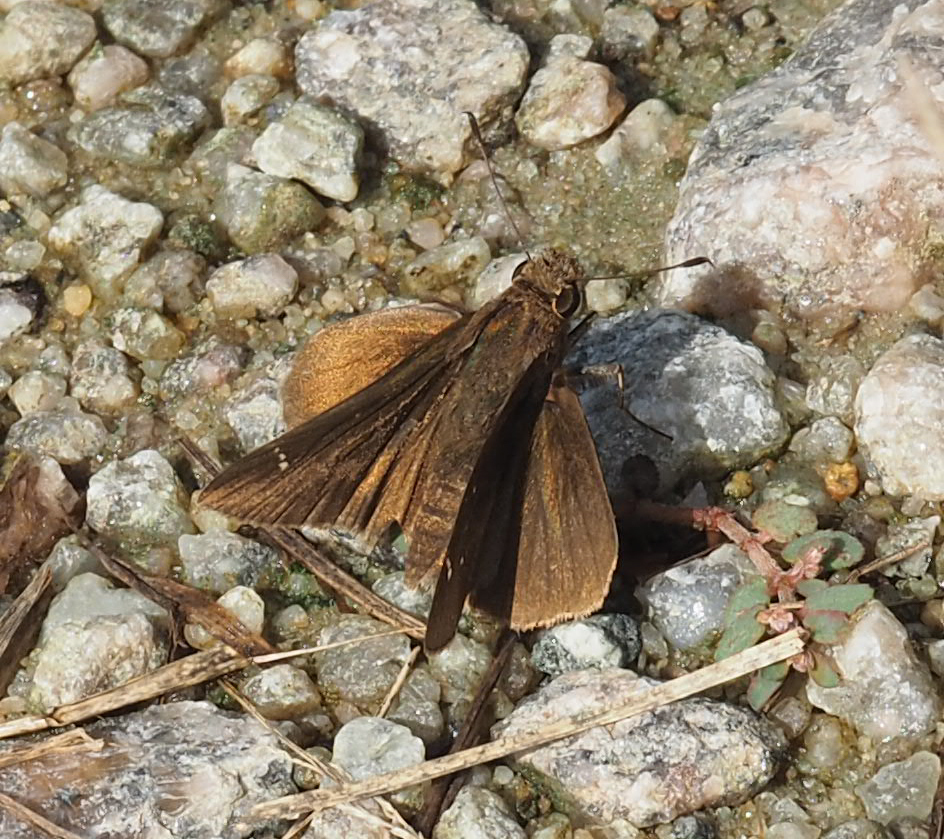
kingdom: Animalia
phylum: Arthropoda
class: Insecta
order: Lepidoptera
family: Hesperiidae
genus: Lerema
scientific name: Lerema accius
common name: Clouded skipper
